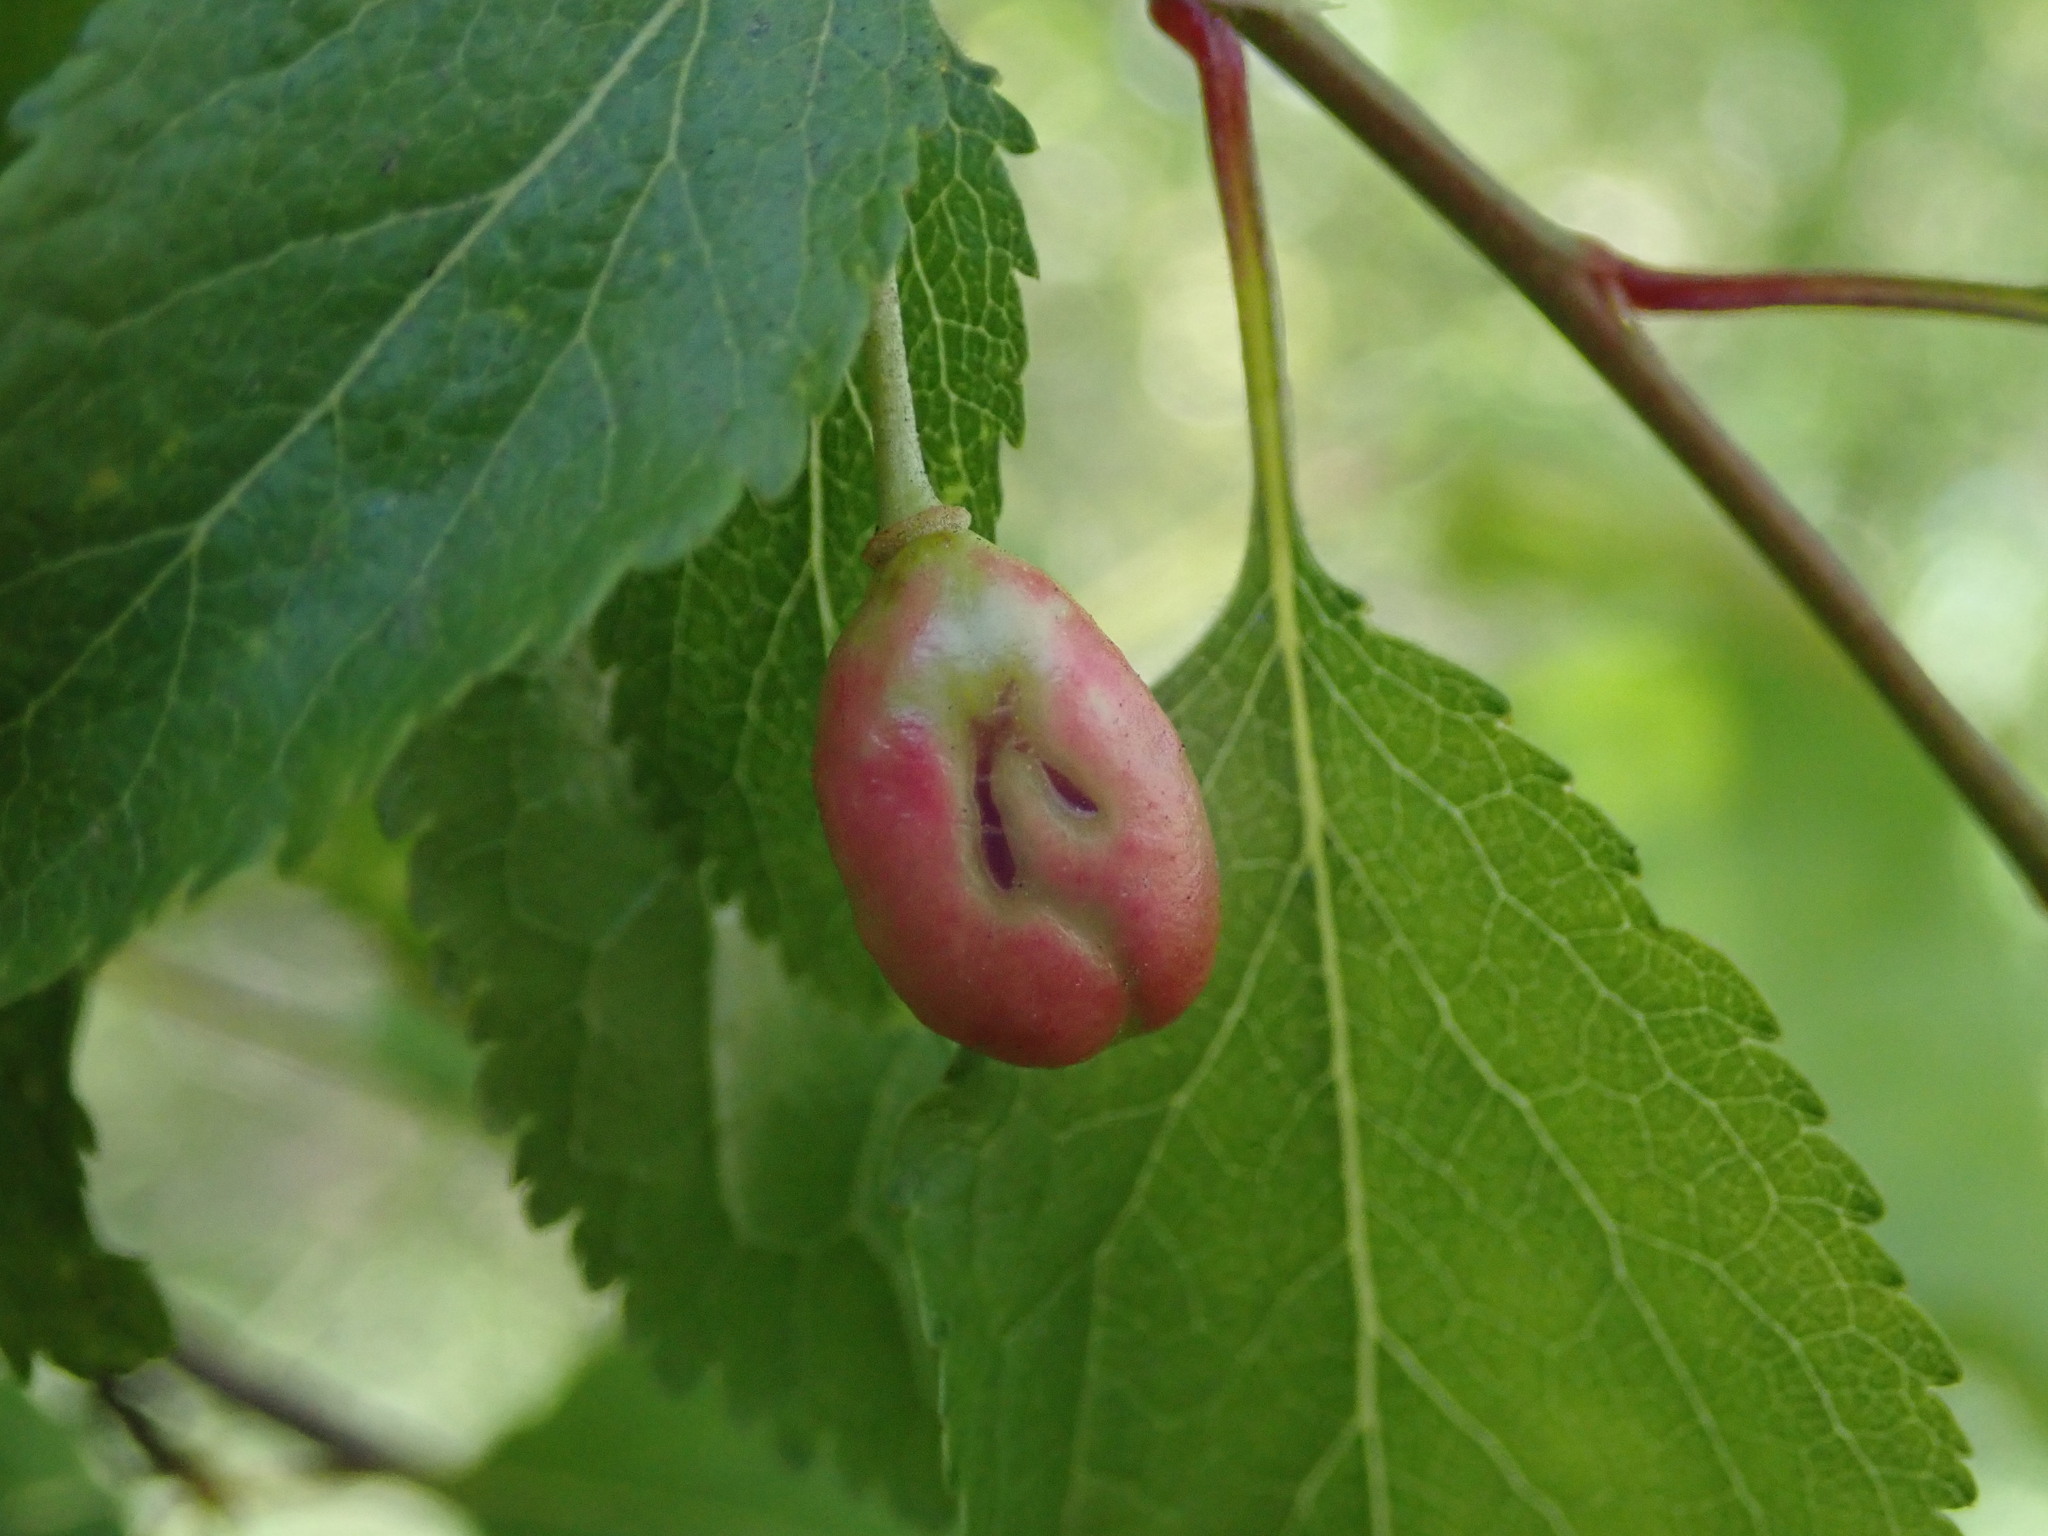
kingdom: Fungi
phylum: Ascomycota
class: Taphrinomycetes
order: Taphrinales
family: Taphrinaceae
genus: Taphrina
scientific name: Taphrina pruni
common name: Pocket plum
